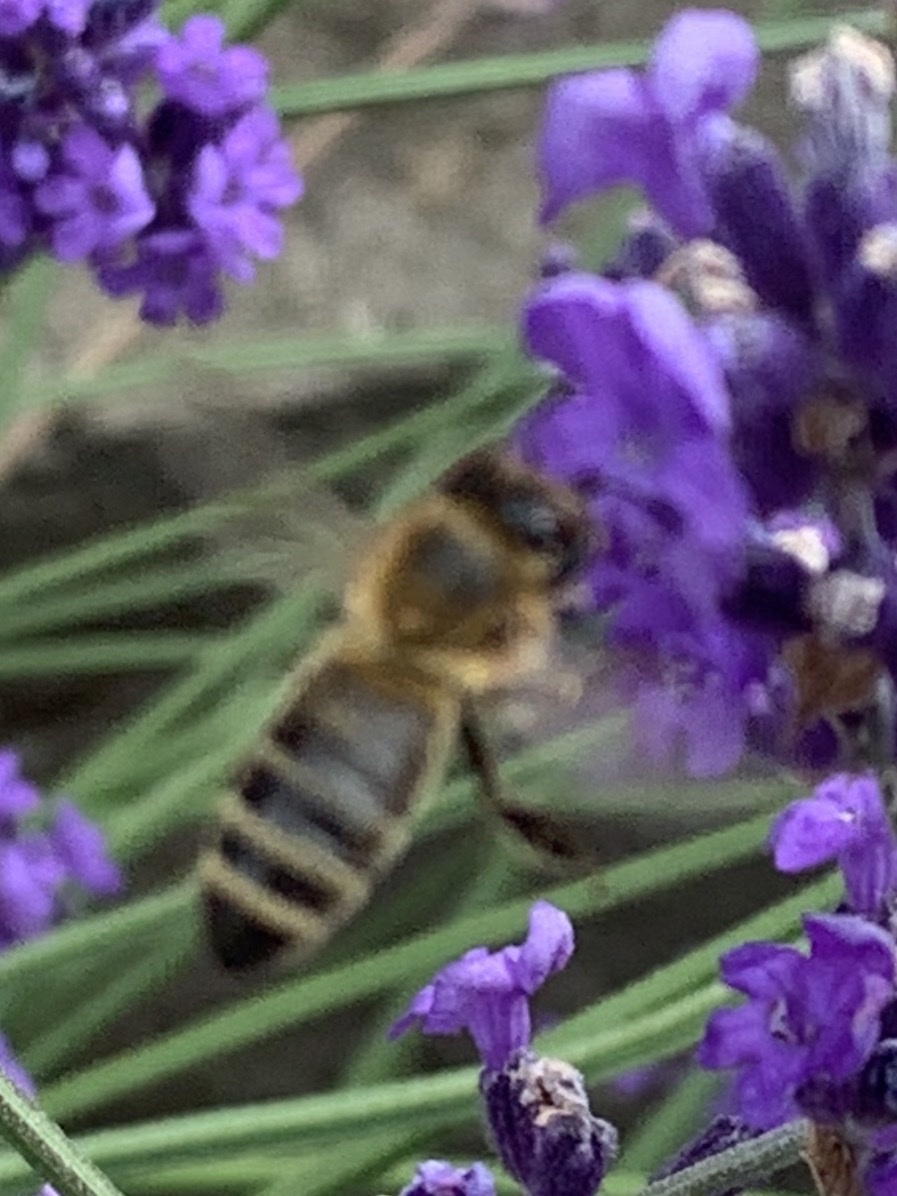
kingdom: Animalia
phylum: Arthropoda
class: Insecta
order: Hymenoptera
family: Apidae
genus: Apis
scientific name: Apis mellifera
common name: Honey bee
